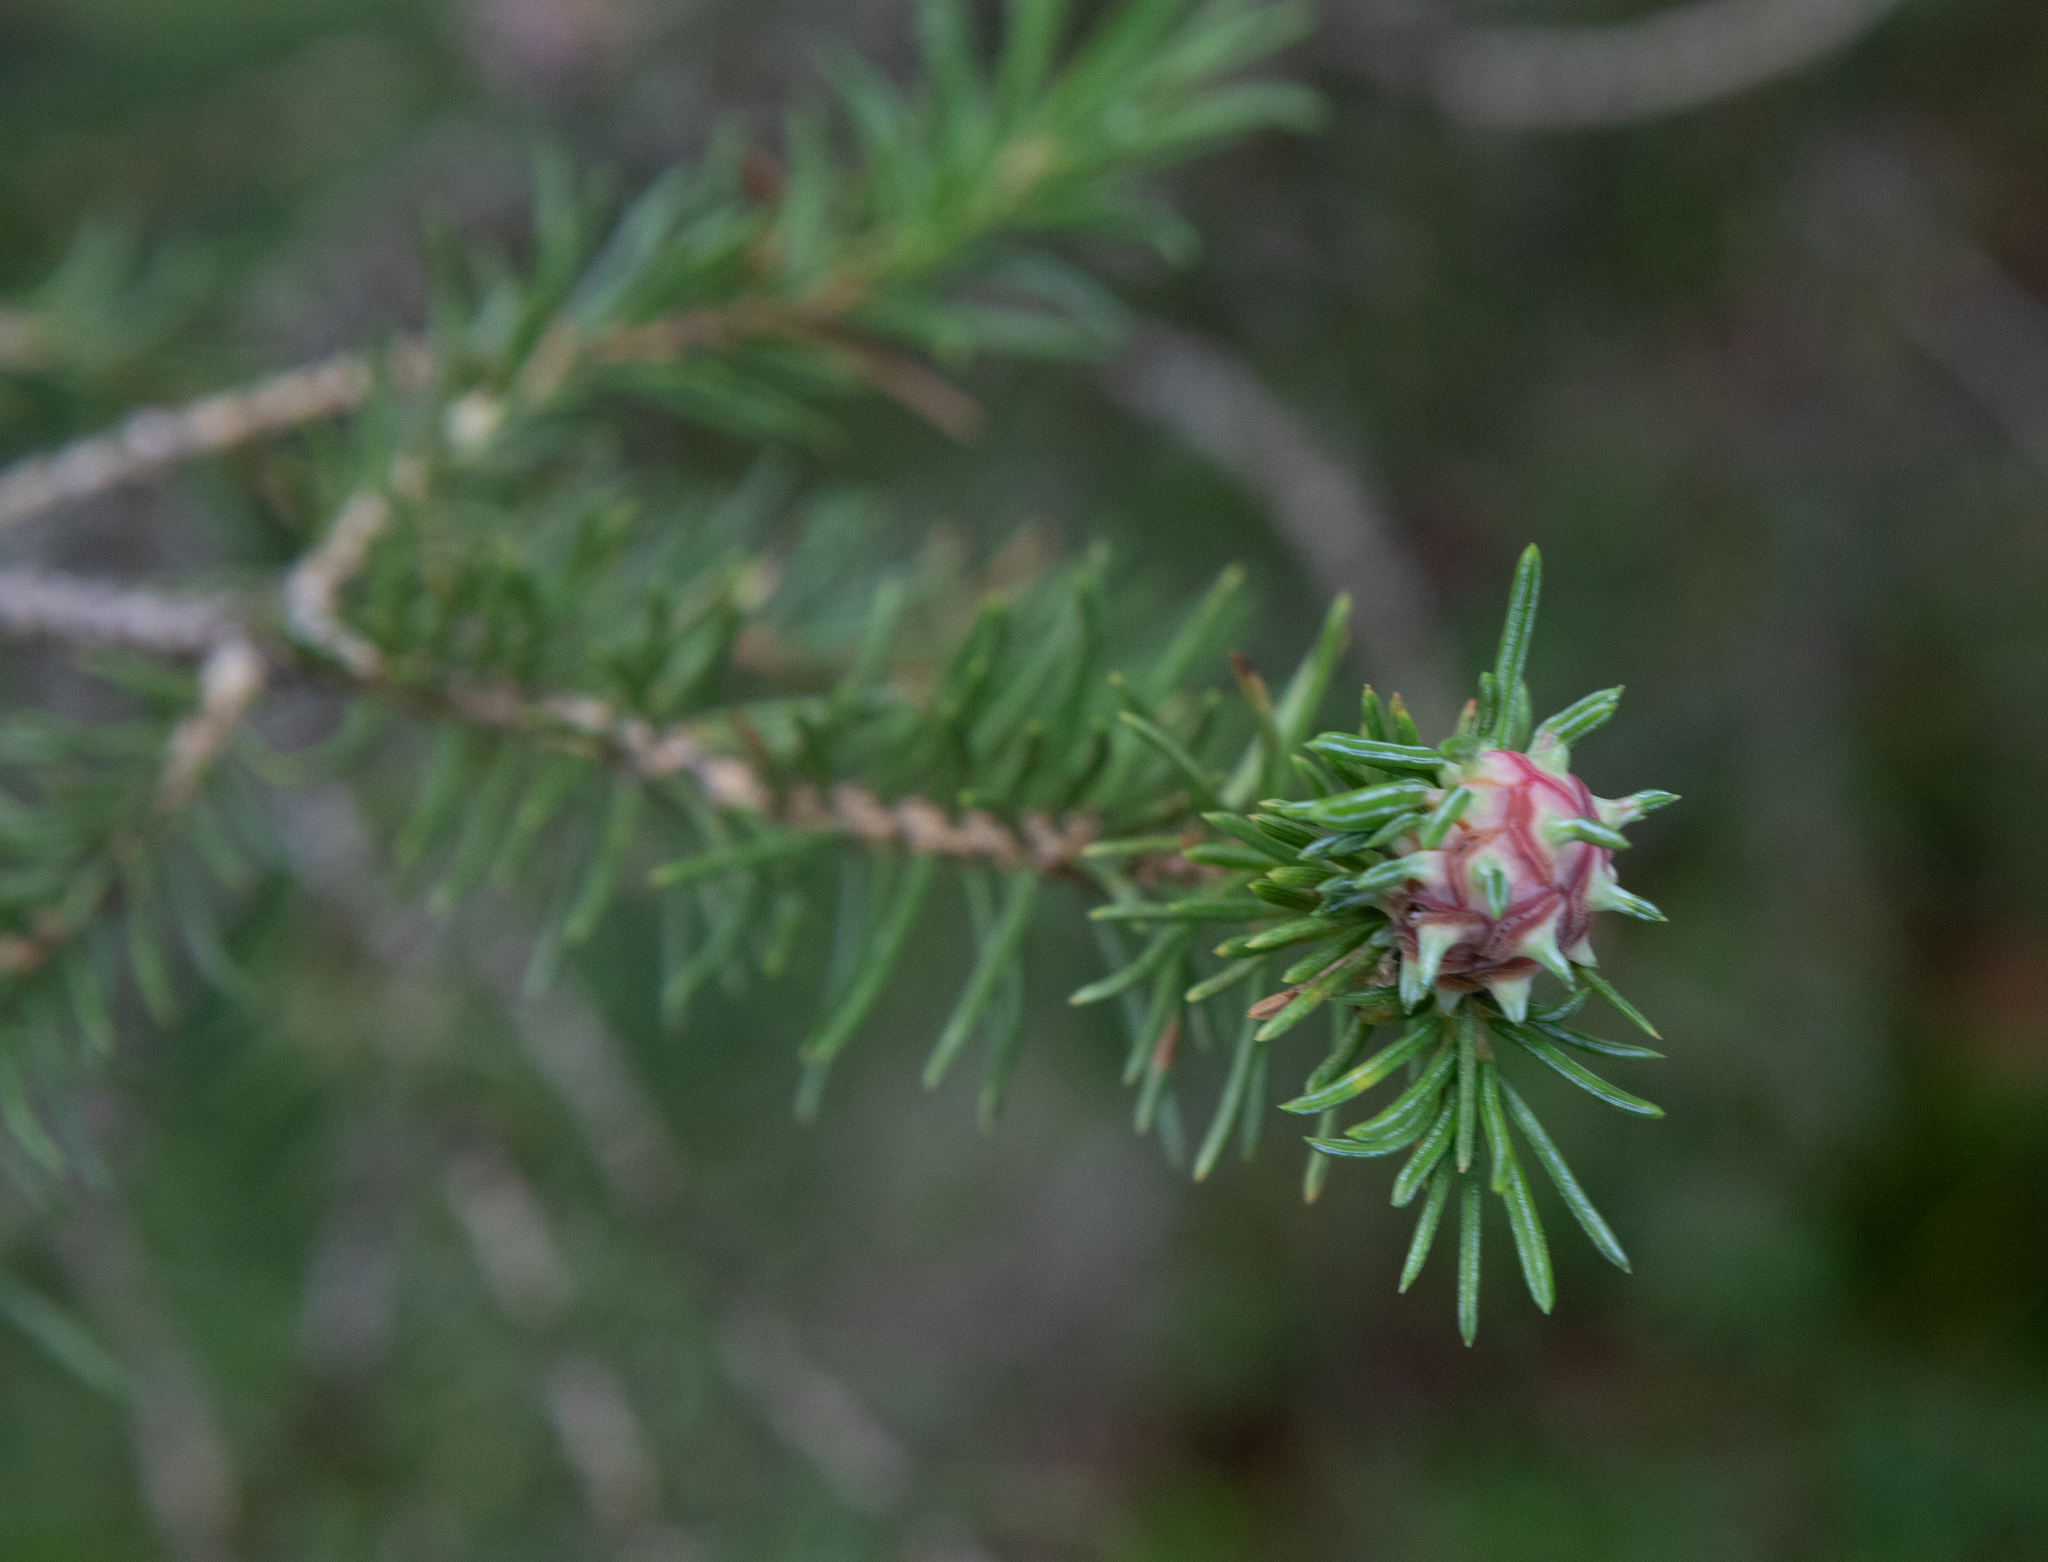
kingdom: Plantae
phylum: Tracheophyta
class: Pinopsida
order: Pinales
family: Pinaceae
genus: Picea
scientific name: Picea obovata
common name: Siberian spruce
